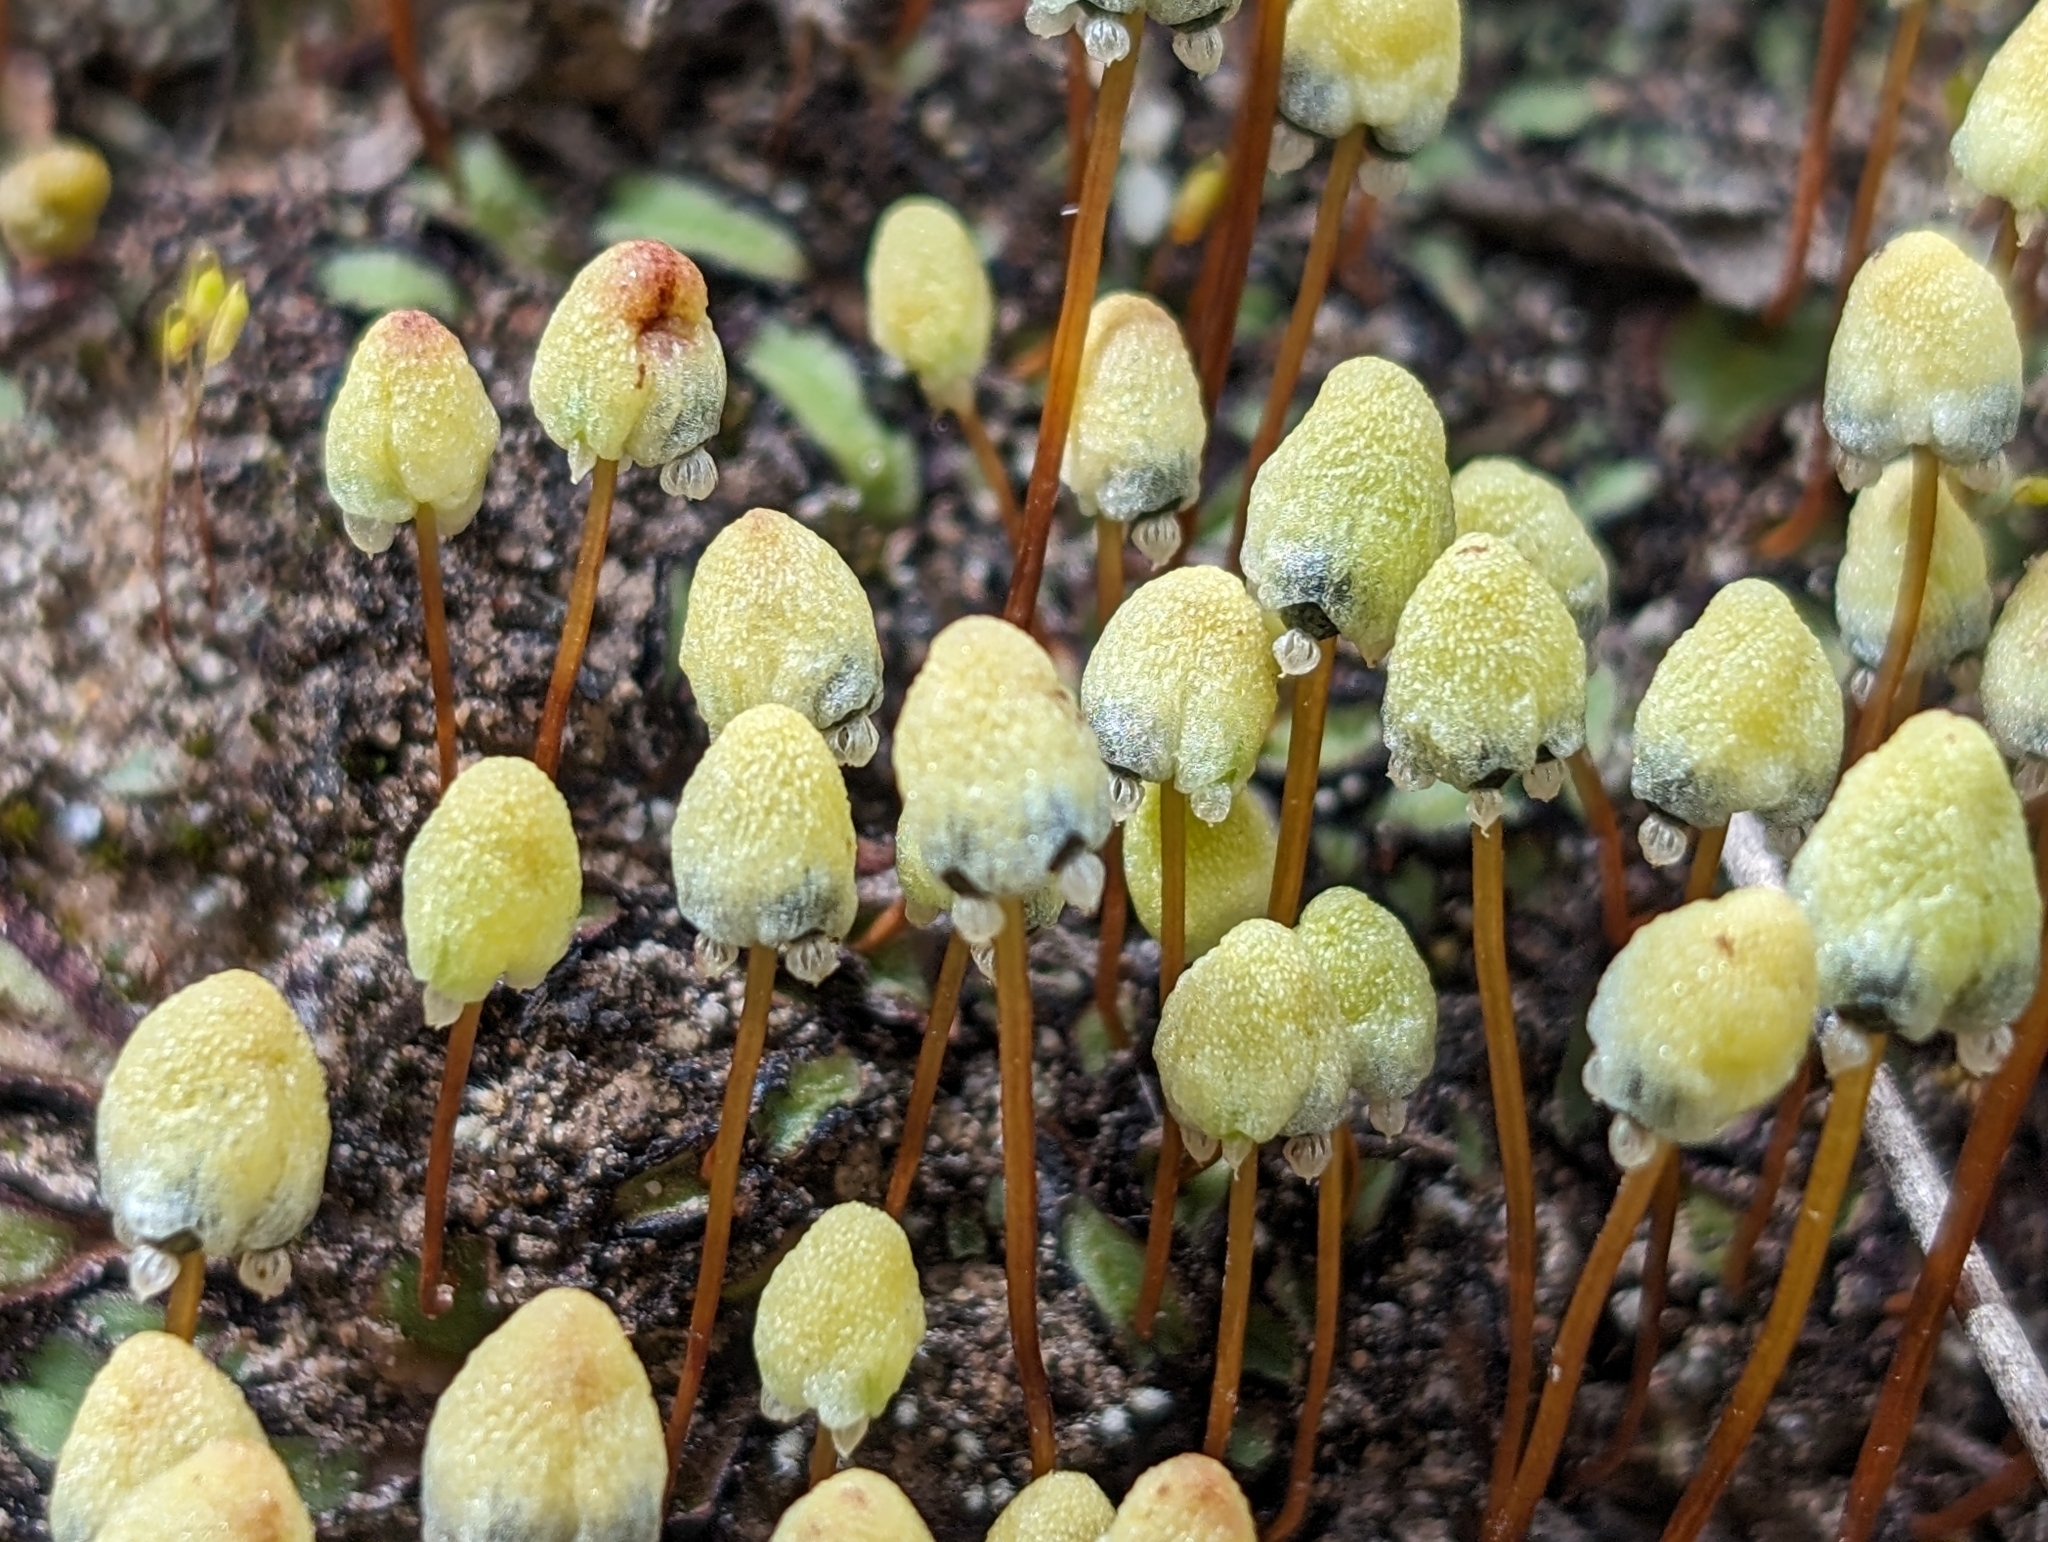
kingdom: Plantae
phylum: Marchantiophyta
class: Marchantiopsida
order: Marchantiales
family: Aytoniaceae
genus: Asterella
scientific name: Asterella palmeri
